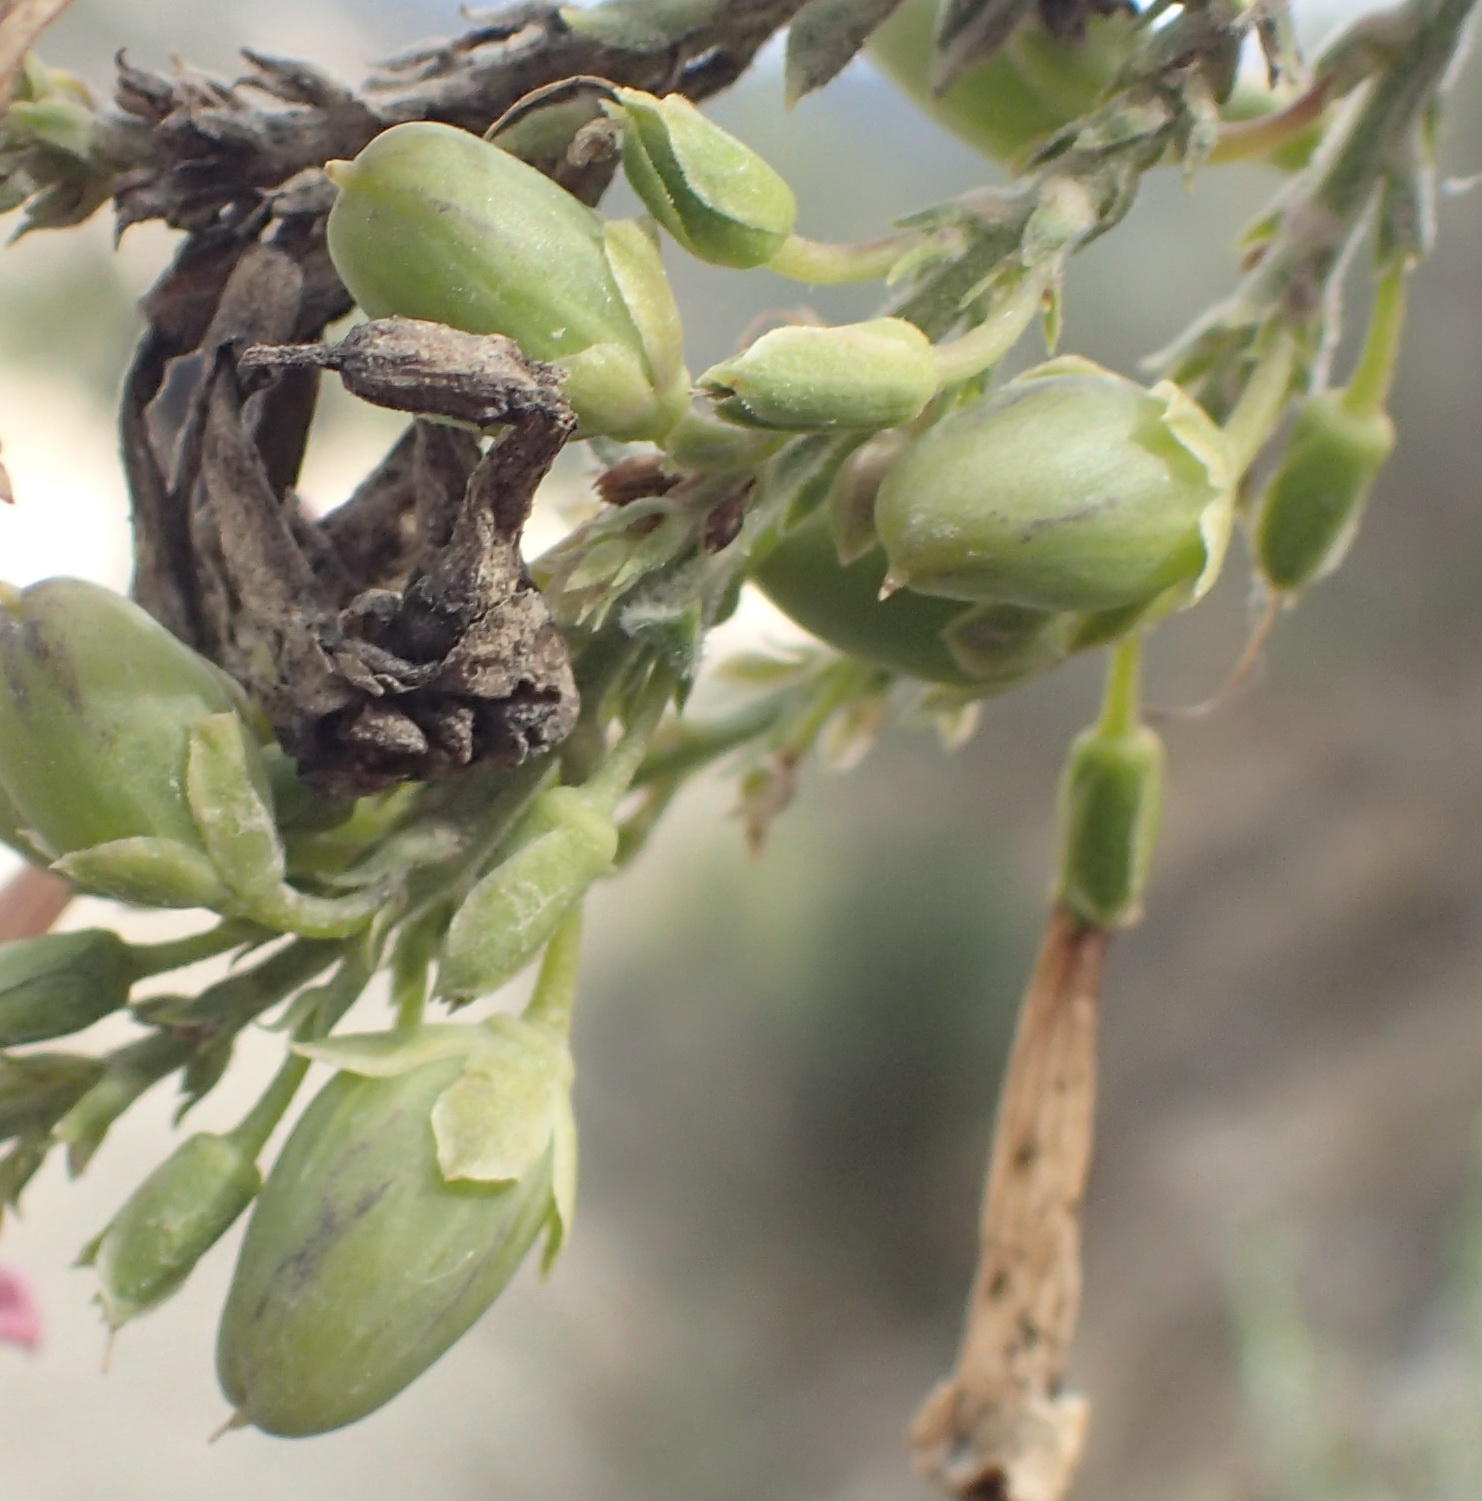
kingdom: Plantae
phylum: Tracheophyta
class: Magnoliopsida
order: Lamiales
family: Scrophulariaceae
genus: Freylinia
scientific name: Freylinia vlokii
